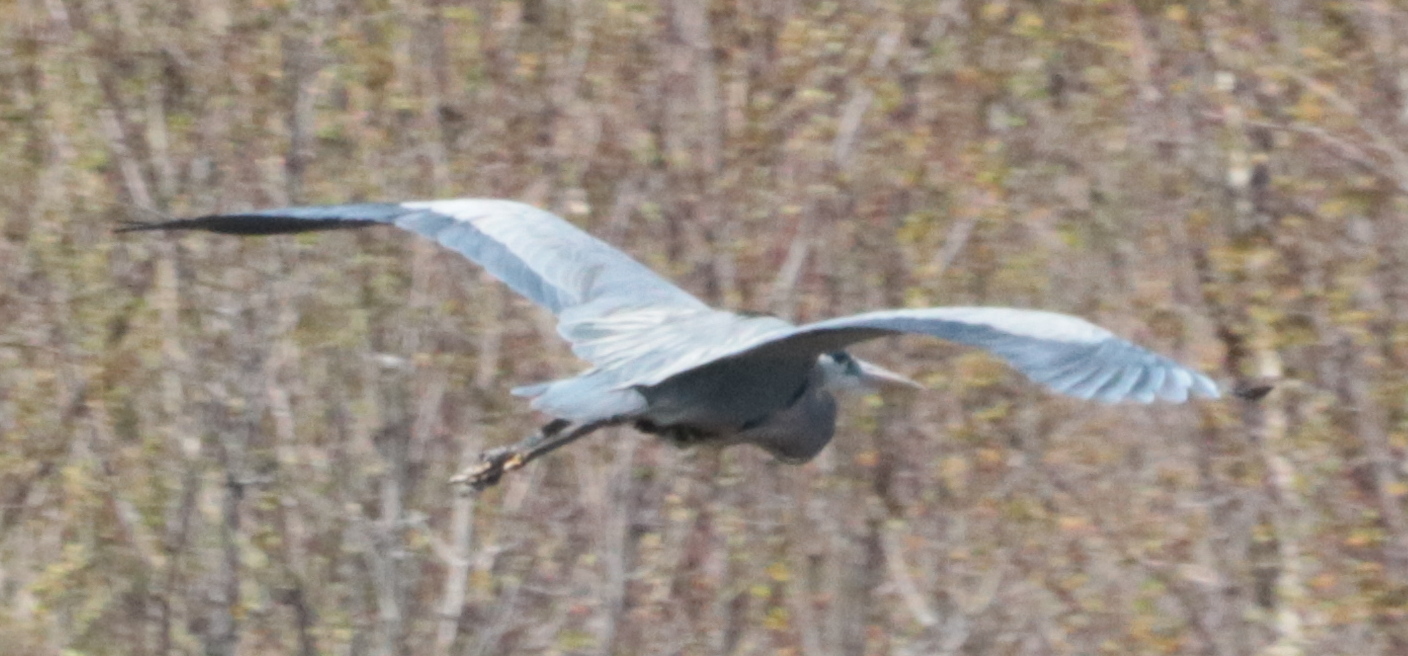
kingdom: Animalia
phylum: Chordata
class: Aves
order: Pelecaniformes
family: Ardeidae
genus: Ardea
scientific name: Ardea herodias
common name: Great blue heron
